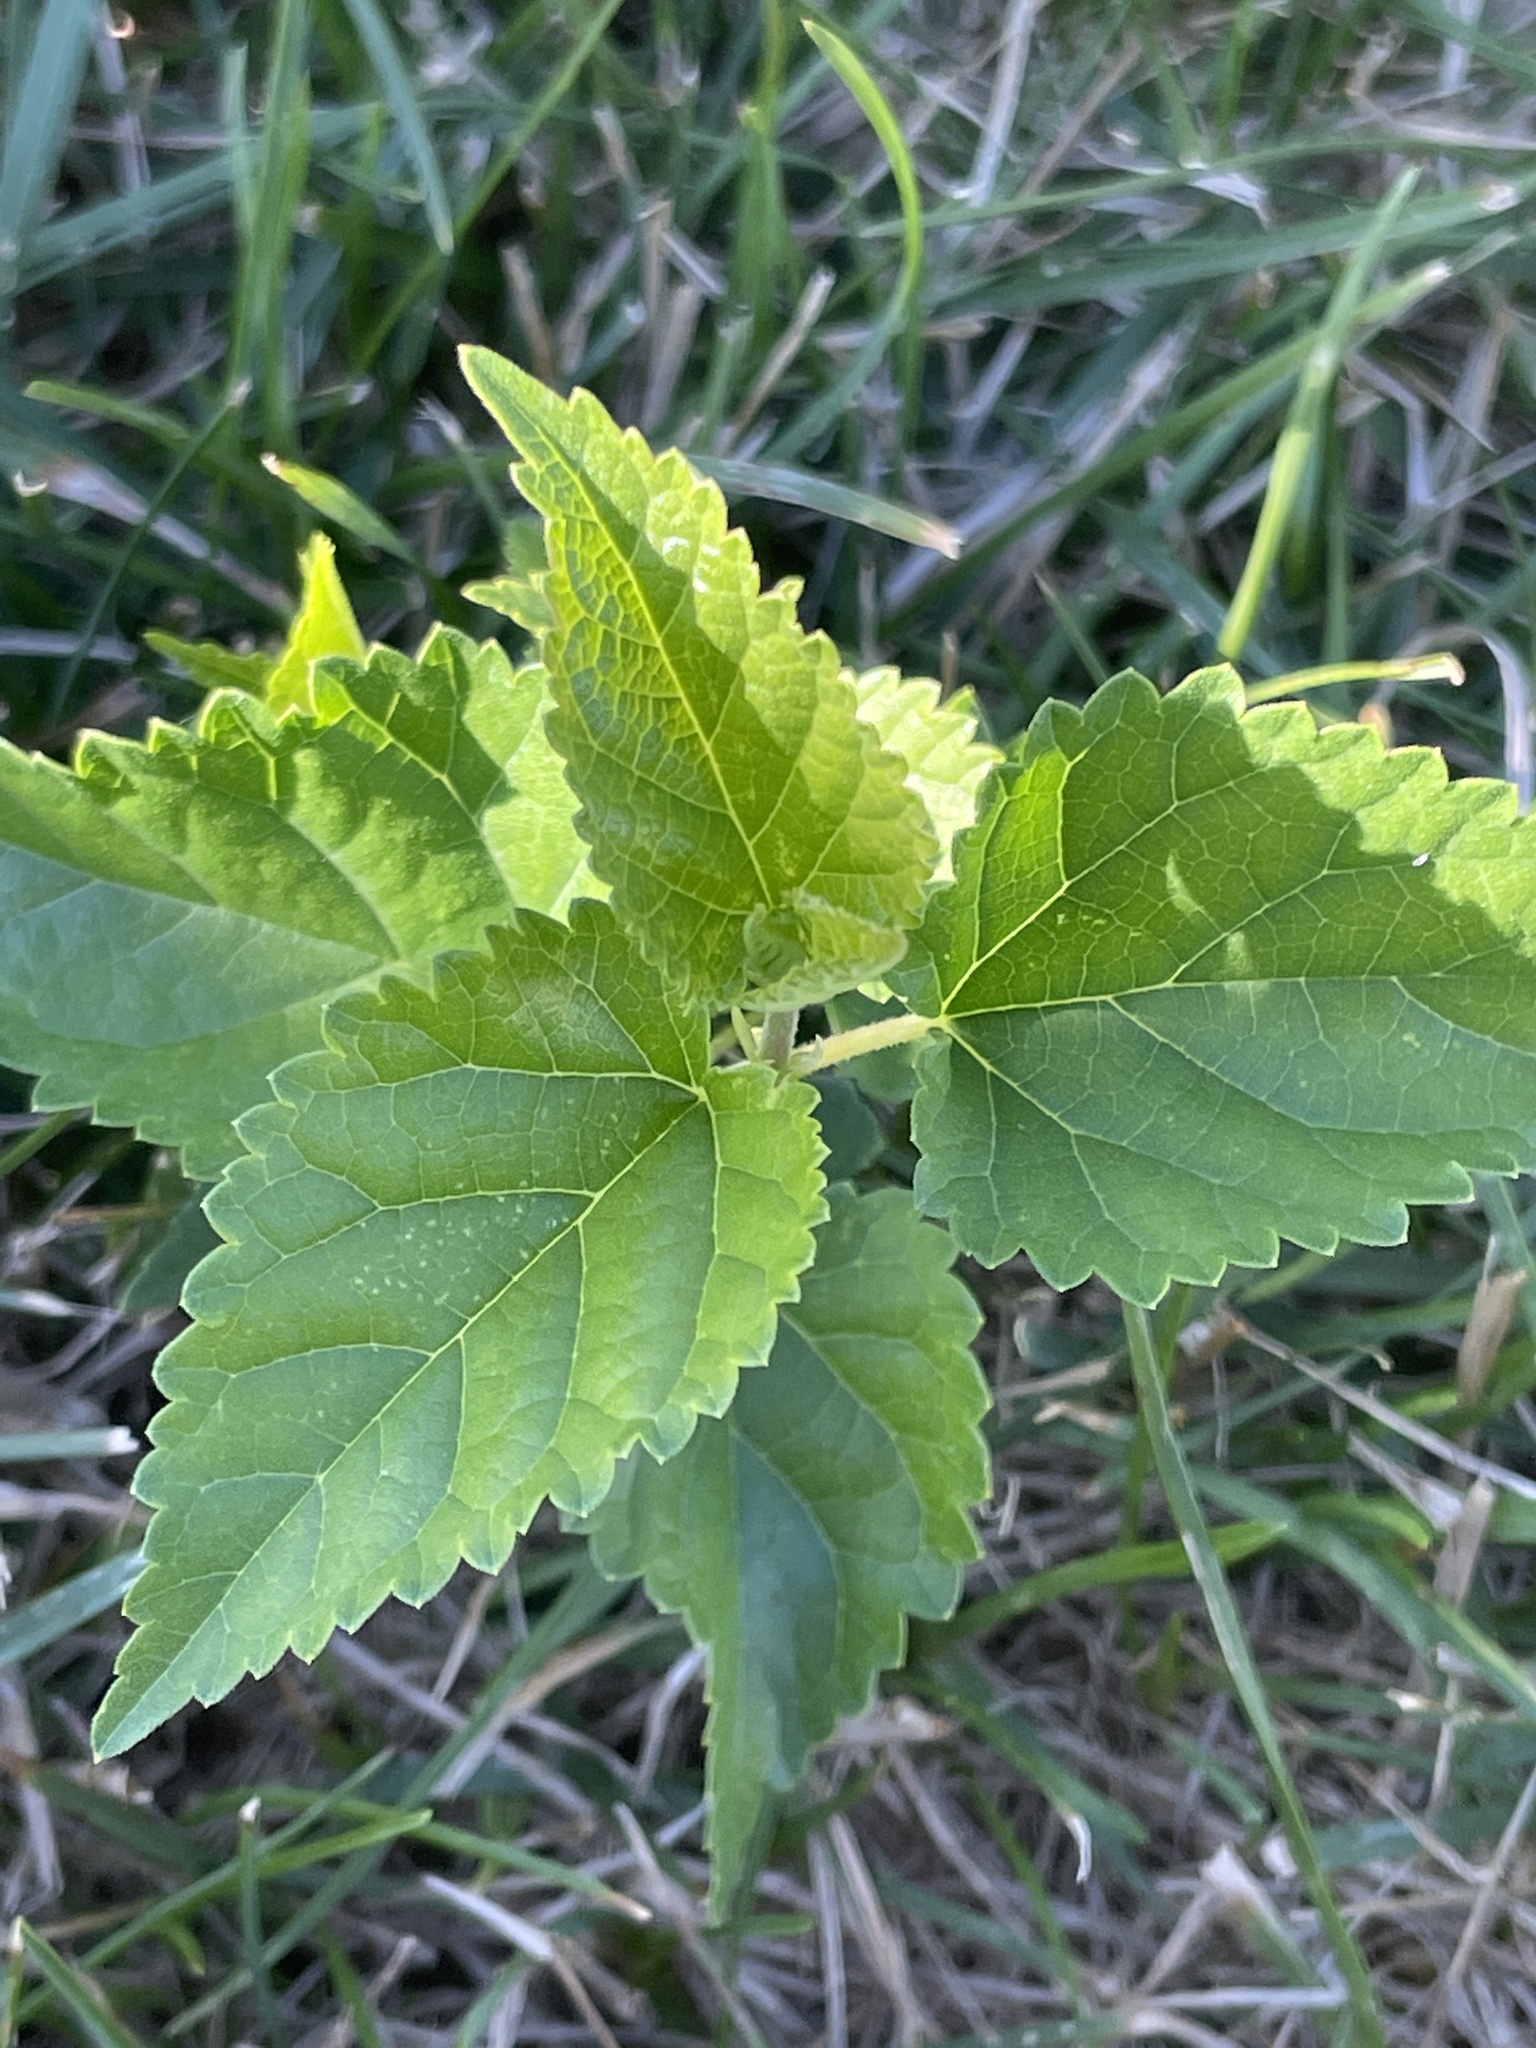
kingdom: Plantae
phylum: Tracheophyta
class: Magnoliopsida
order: Rosales
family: Moraceae
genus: Morus
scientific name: Morus alba
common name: White mulberry
